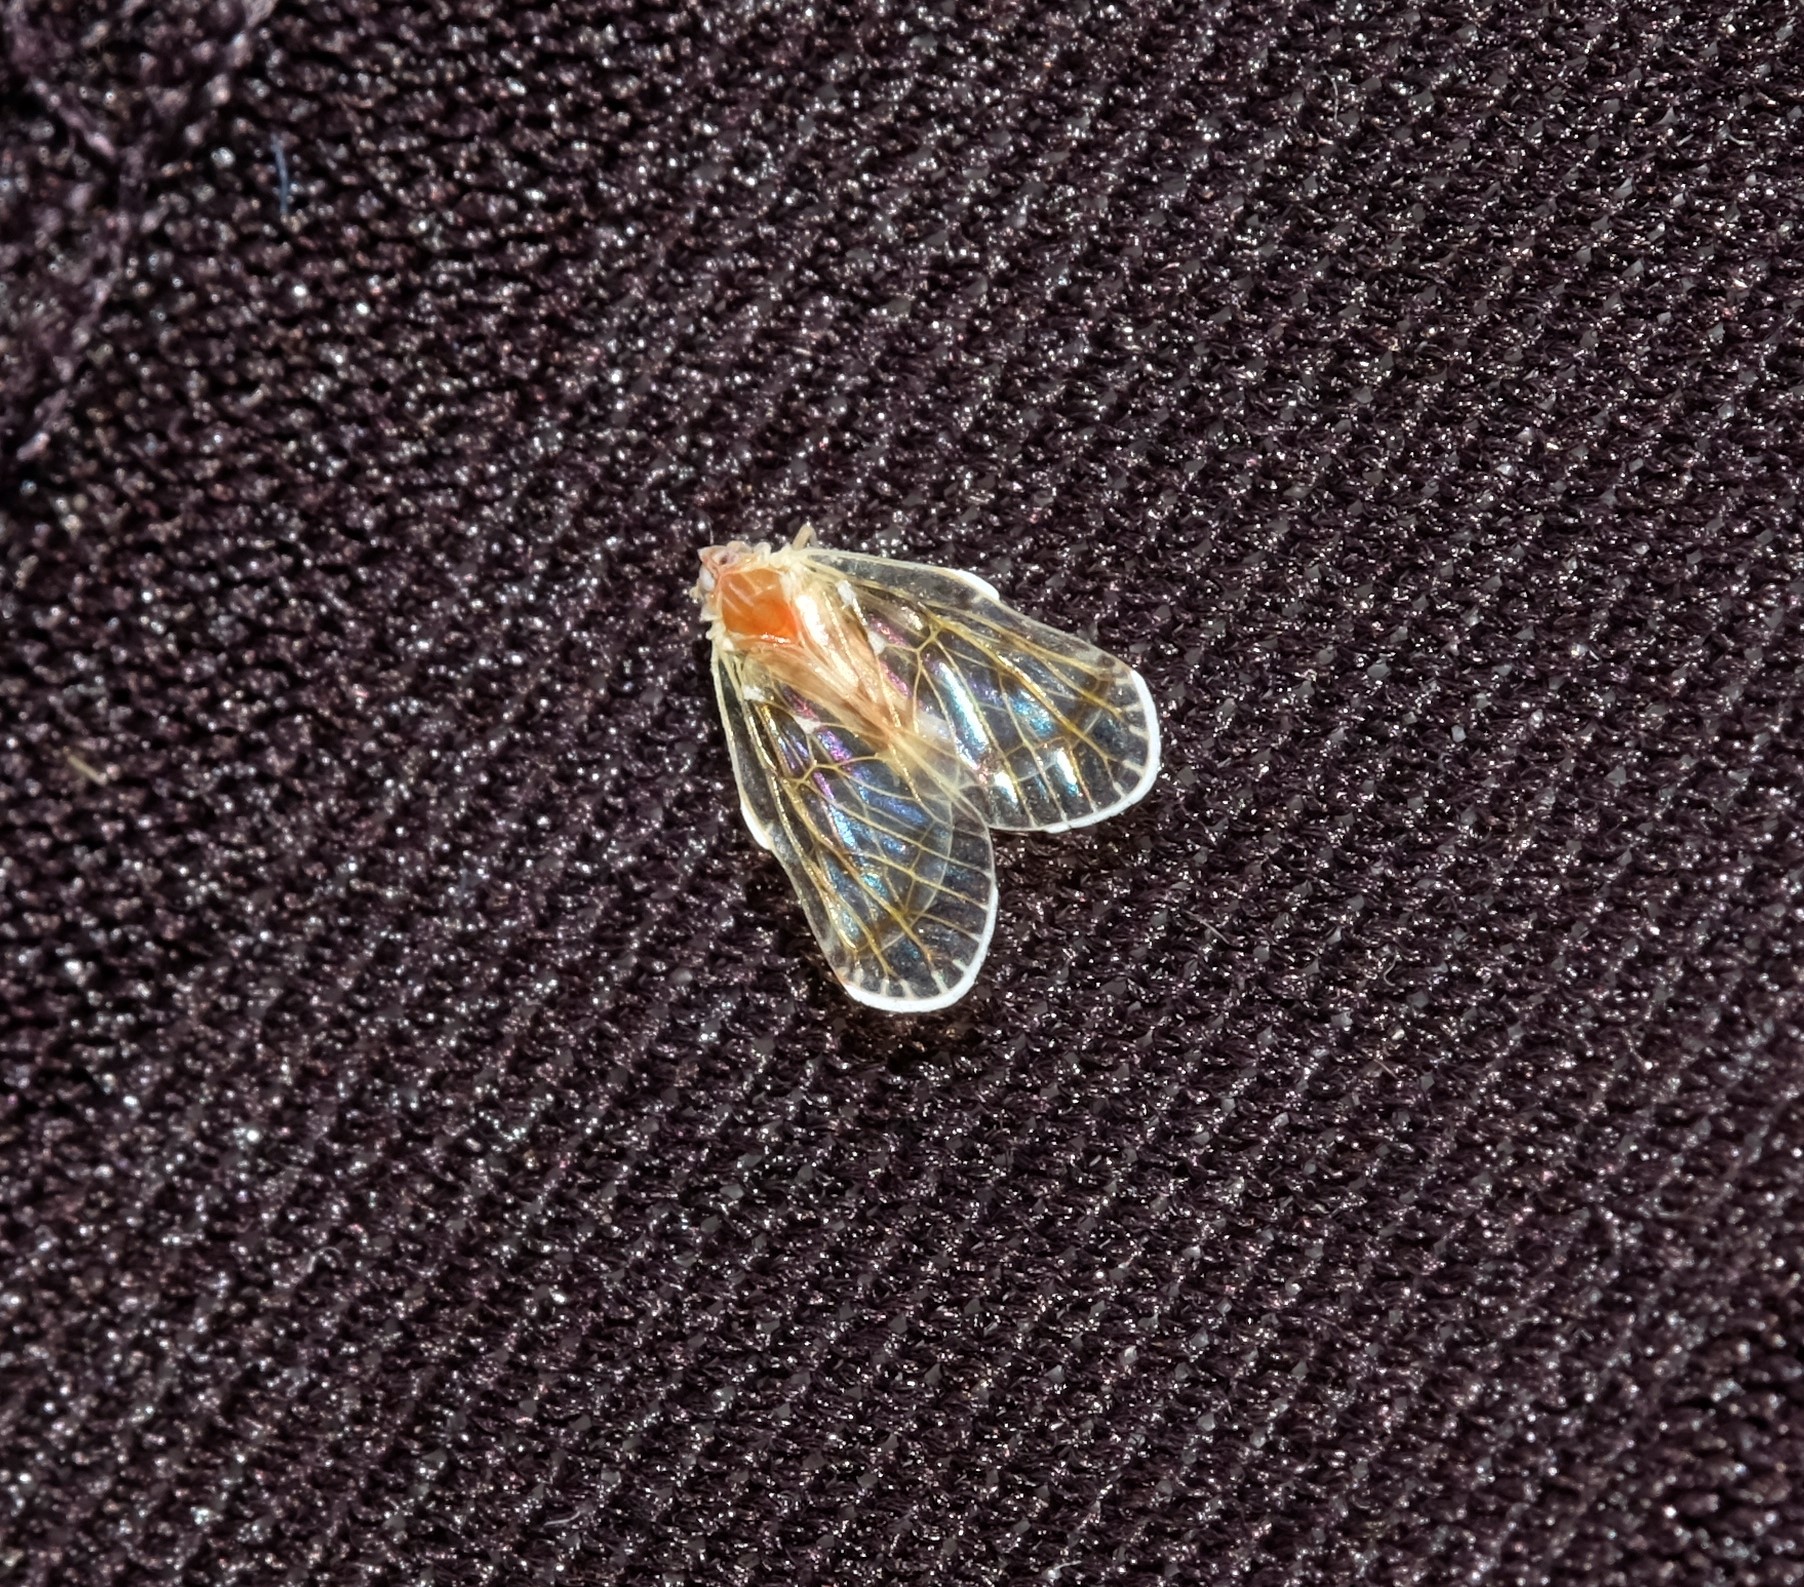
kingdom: Animalia
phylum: Arthropoda
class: Insecta
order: Hemiptera
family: Derbidae
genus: Saccharodite
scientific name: Saccharodite chrysonoe
